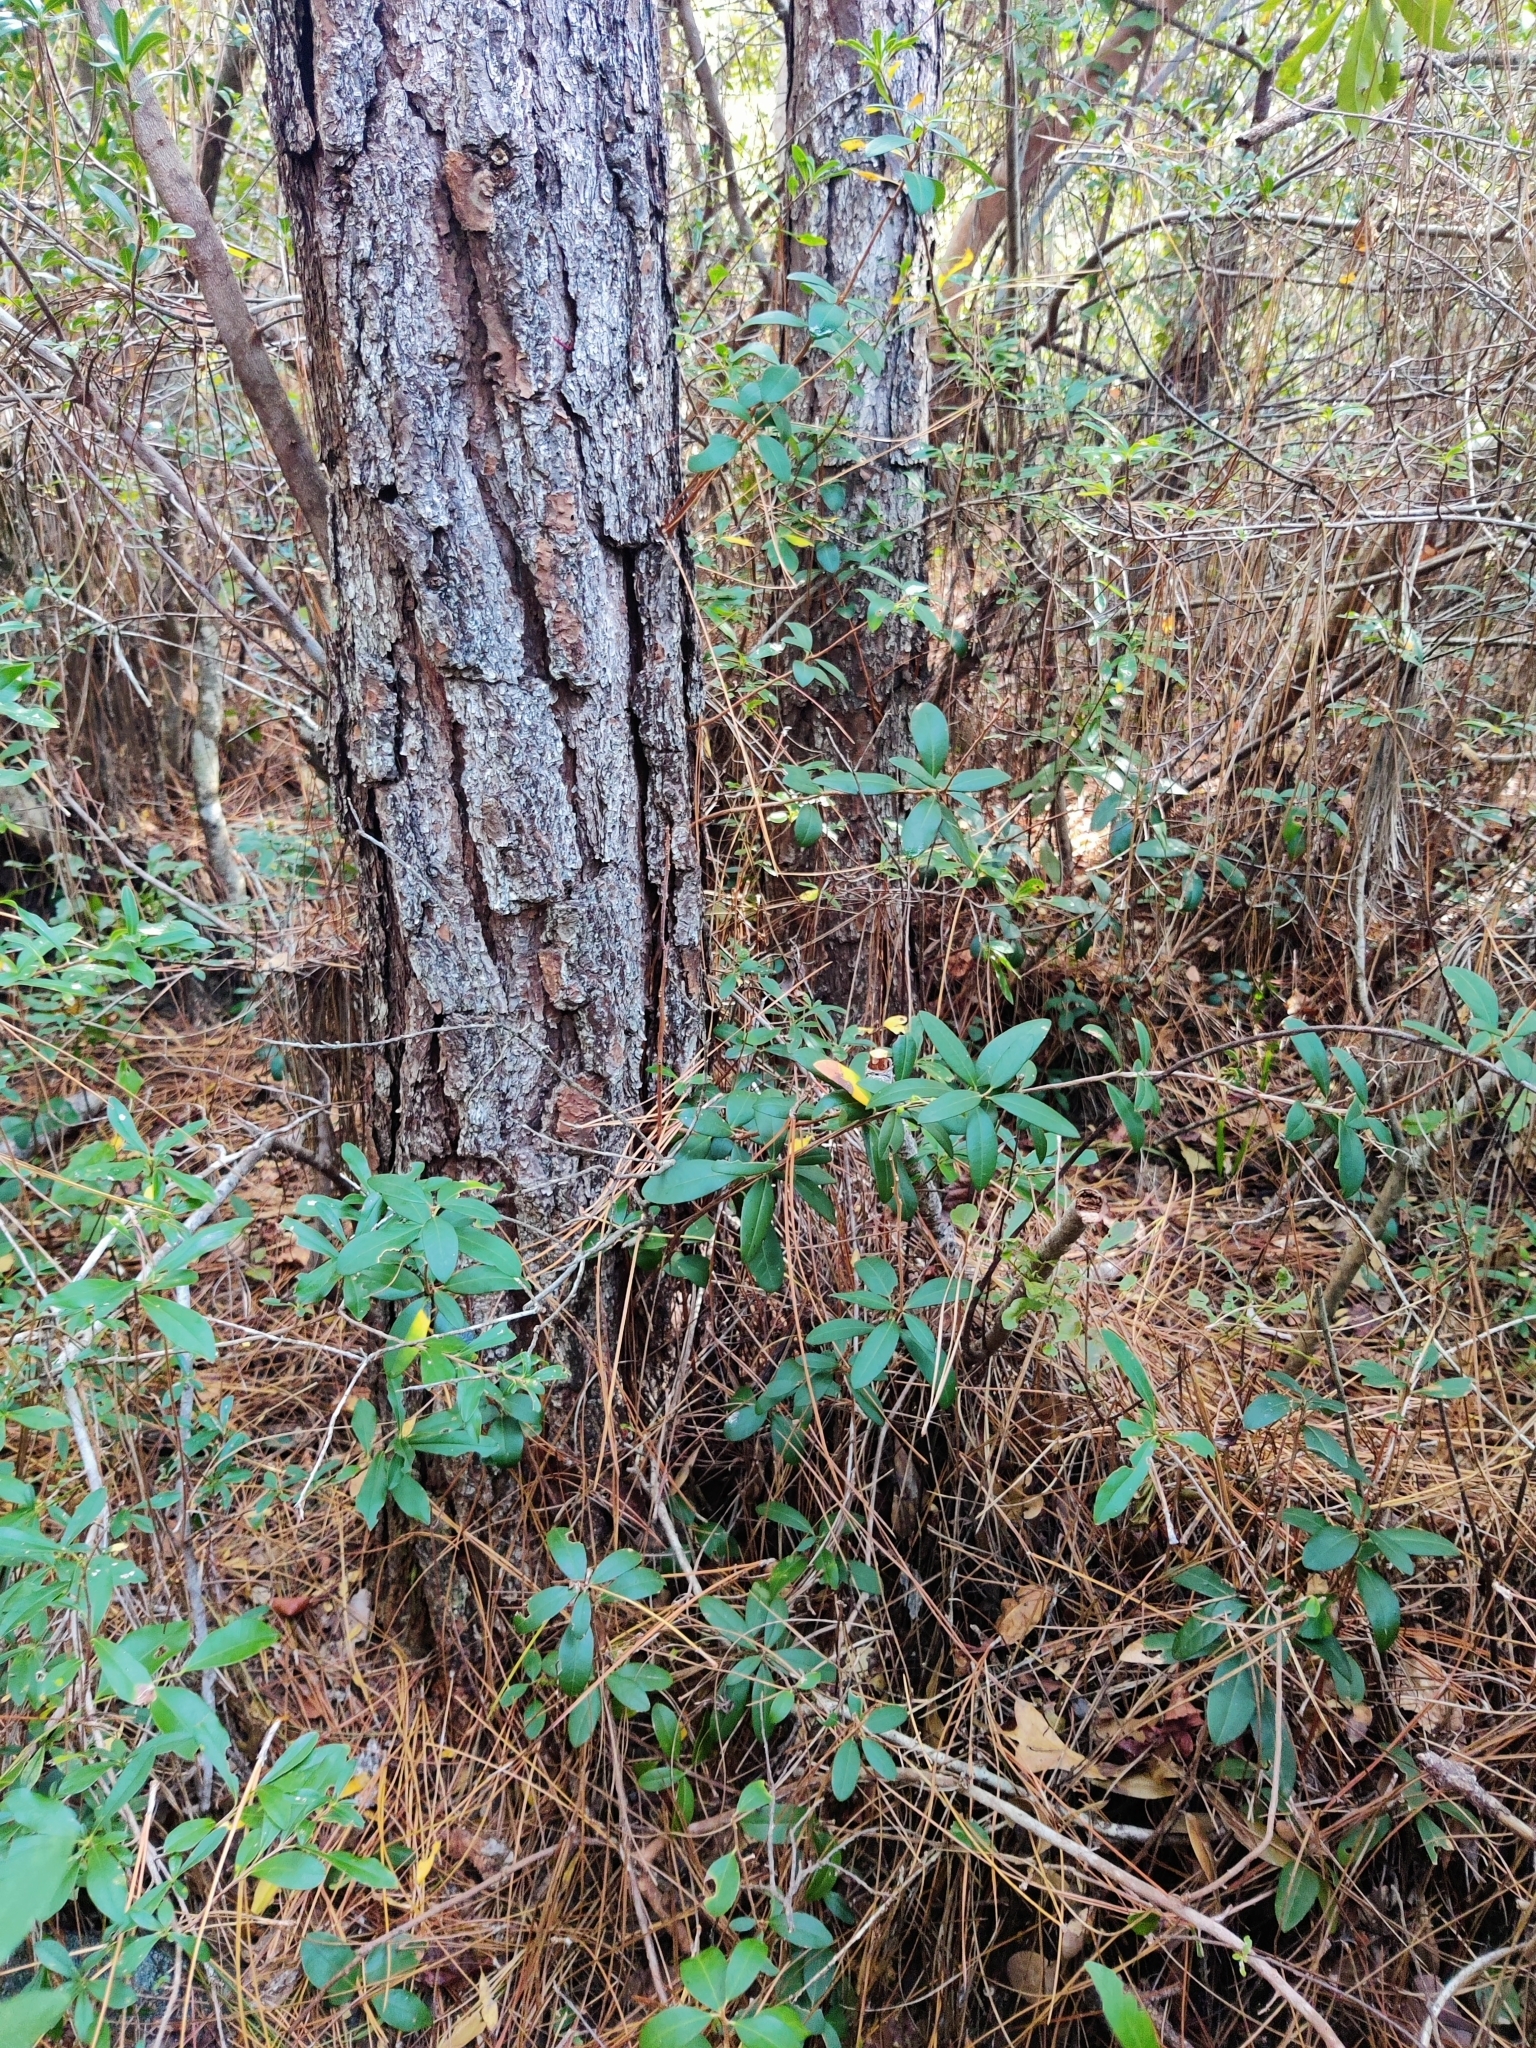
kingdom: Plantae
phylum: Tracheophyta
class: Magnoliopsida
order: Ericales
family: Ericaceae
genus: Pieris
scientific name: Pieris phillyreifolia
